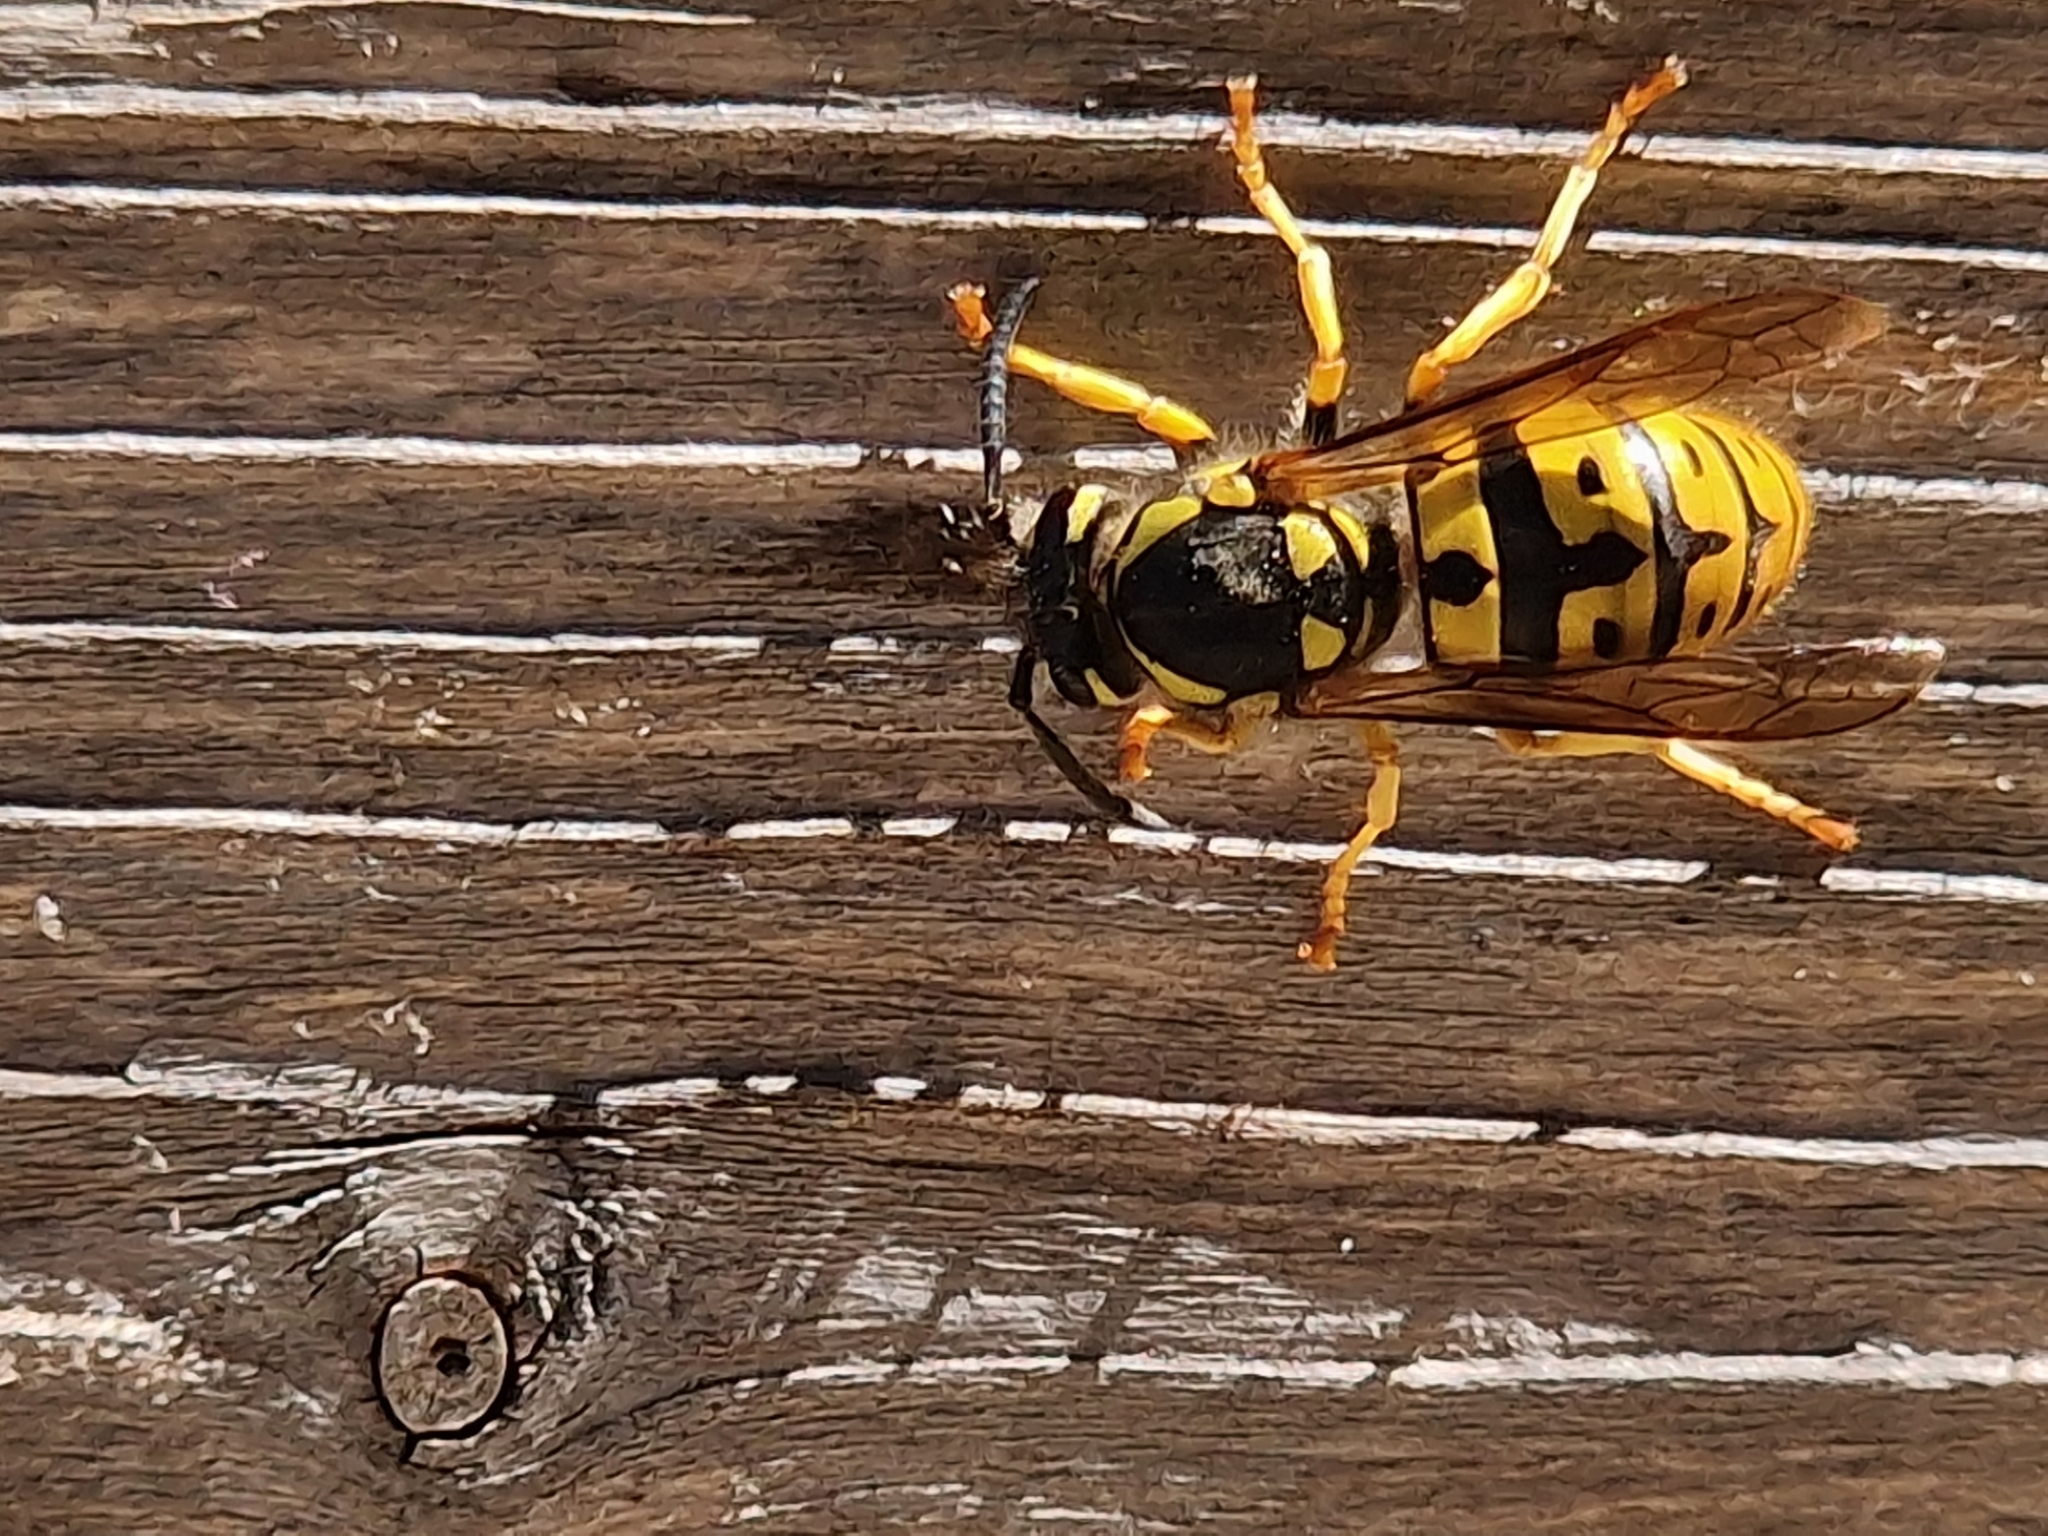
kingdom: Animalia
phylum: Arthropoda
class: Insecta
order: Hymenoptera
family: Vespidae
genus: Vespula
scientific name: Vespula germanica
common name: German wasp
